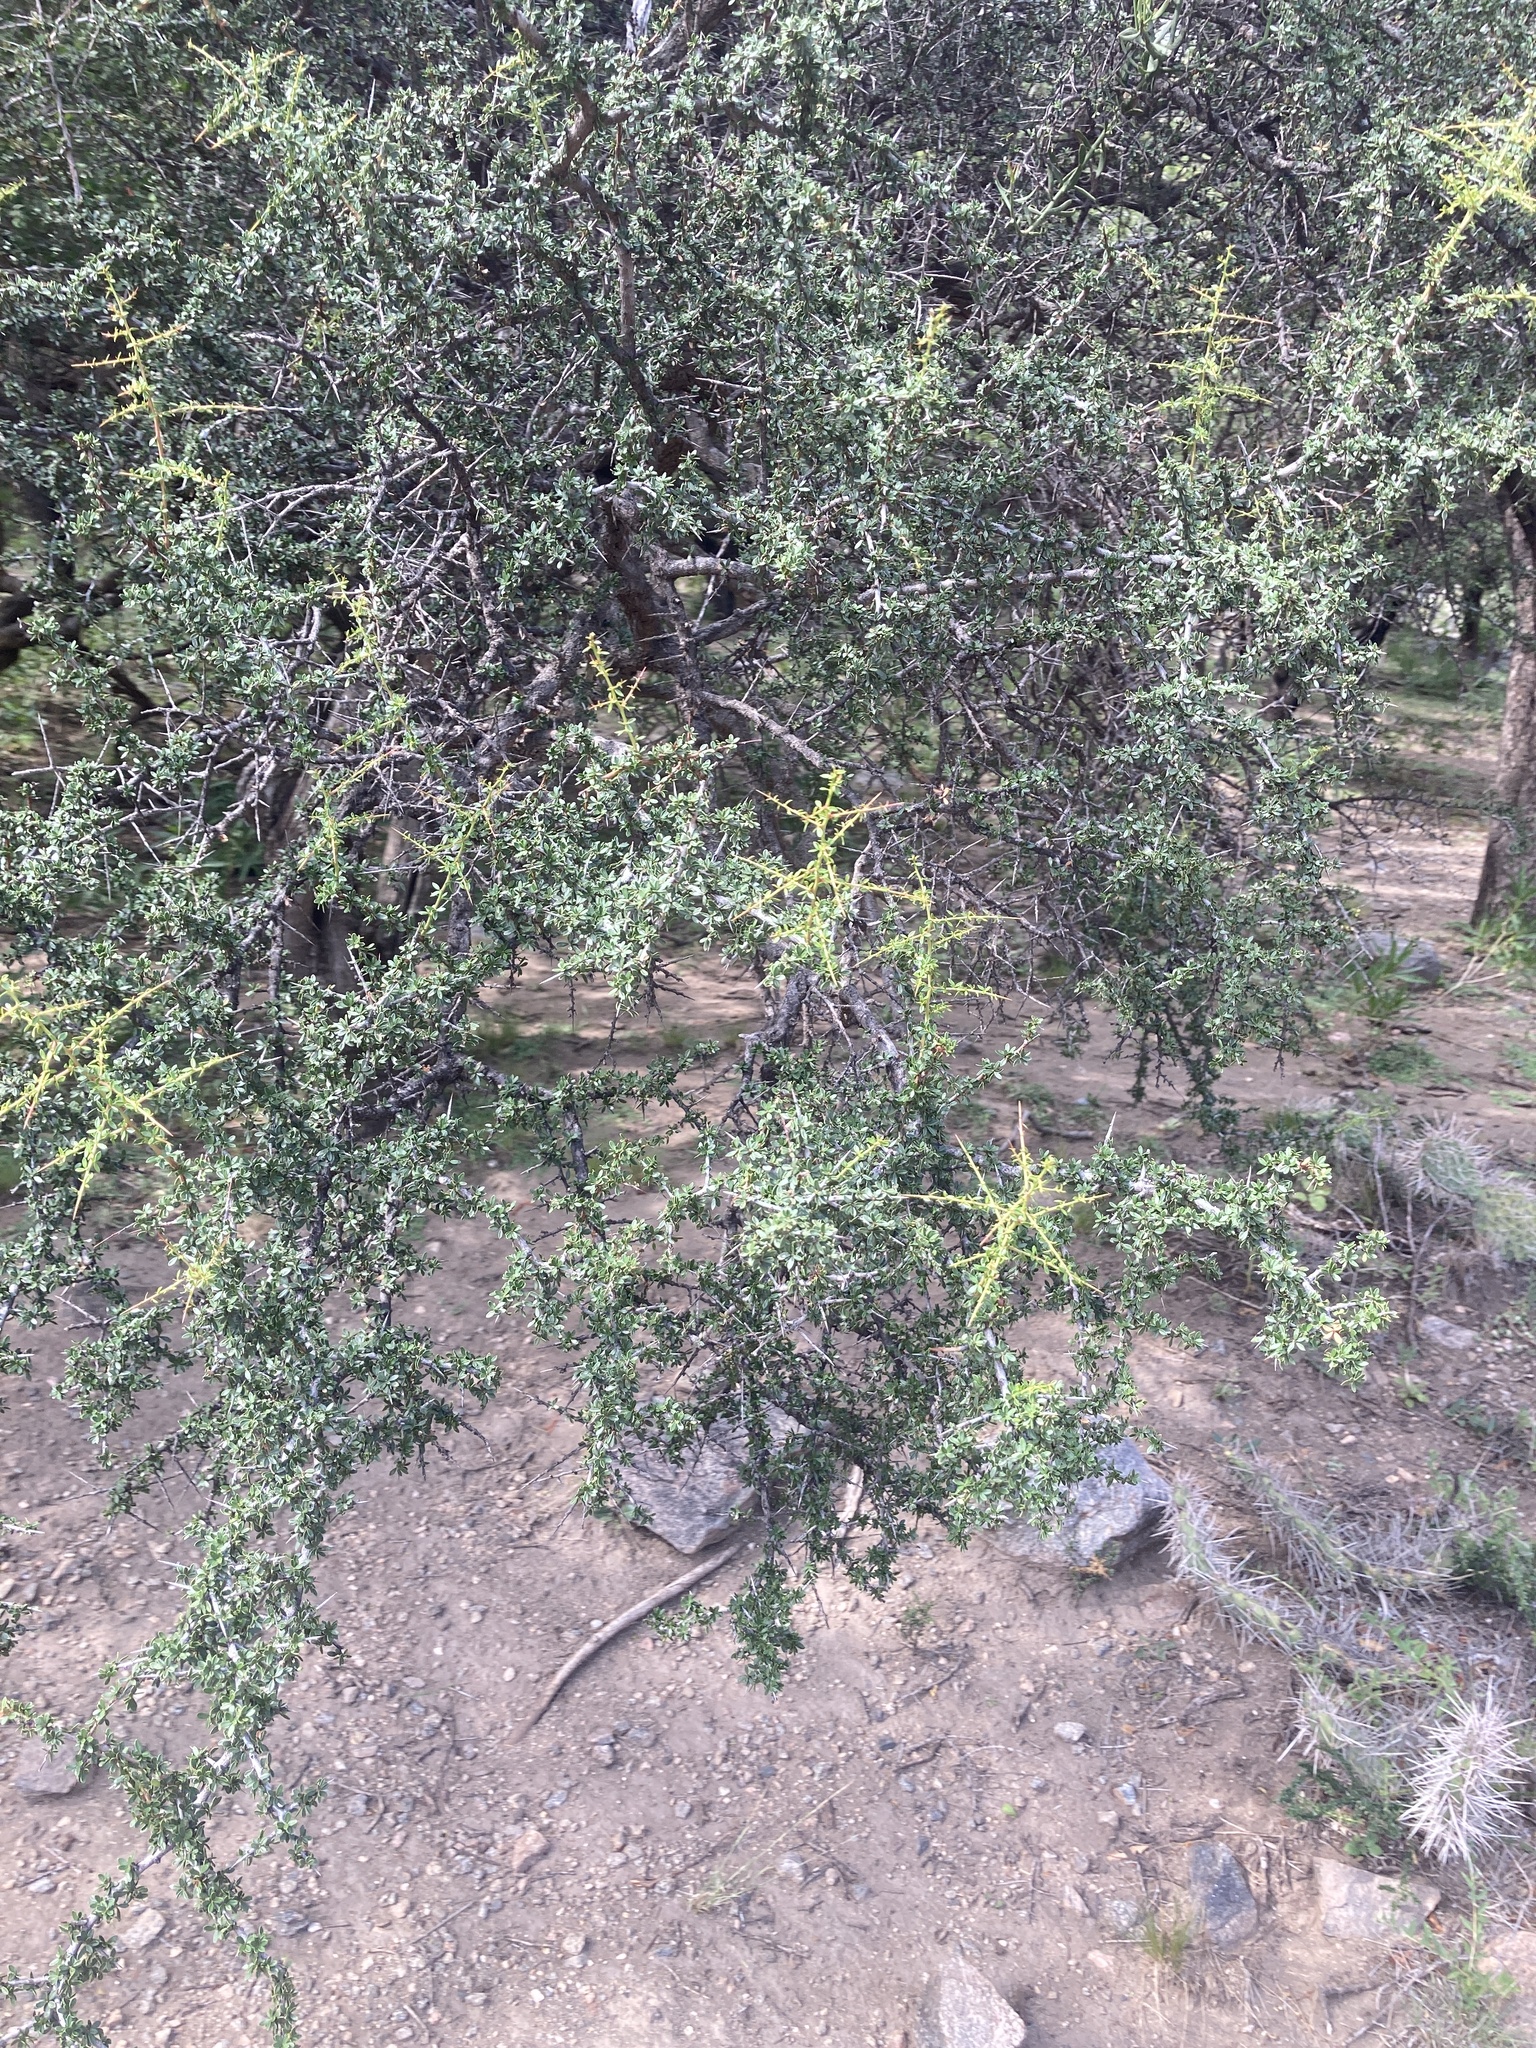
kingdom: Plantae
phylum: Tracheophyta
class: Magnoliopsida
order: Rosales
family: Rhamnaceae
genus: Condalia
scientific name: Condalia microphylla
